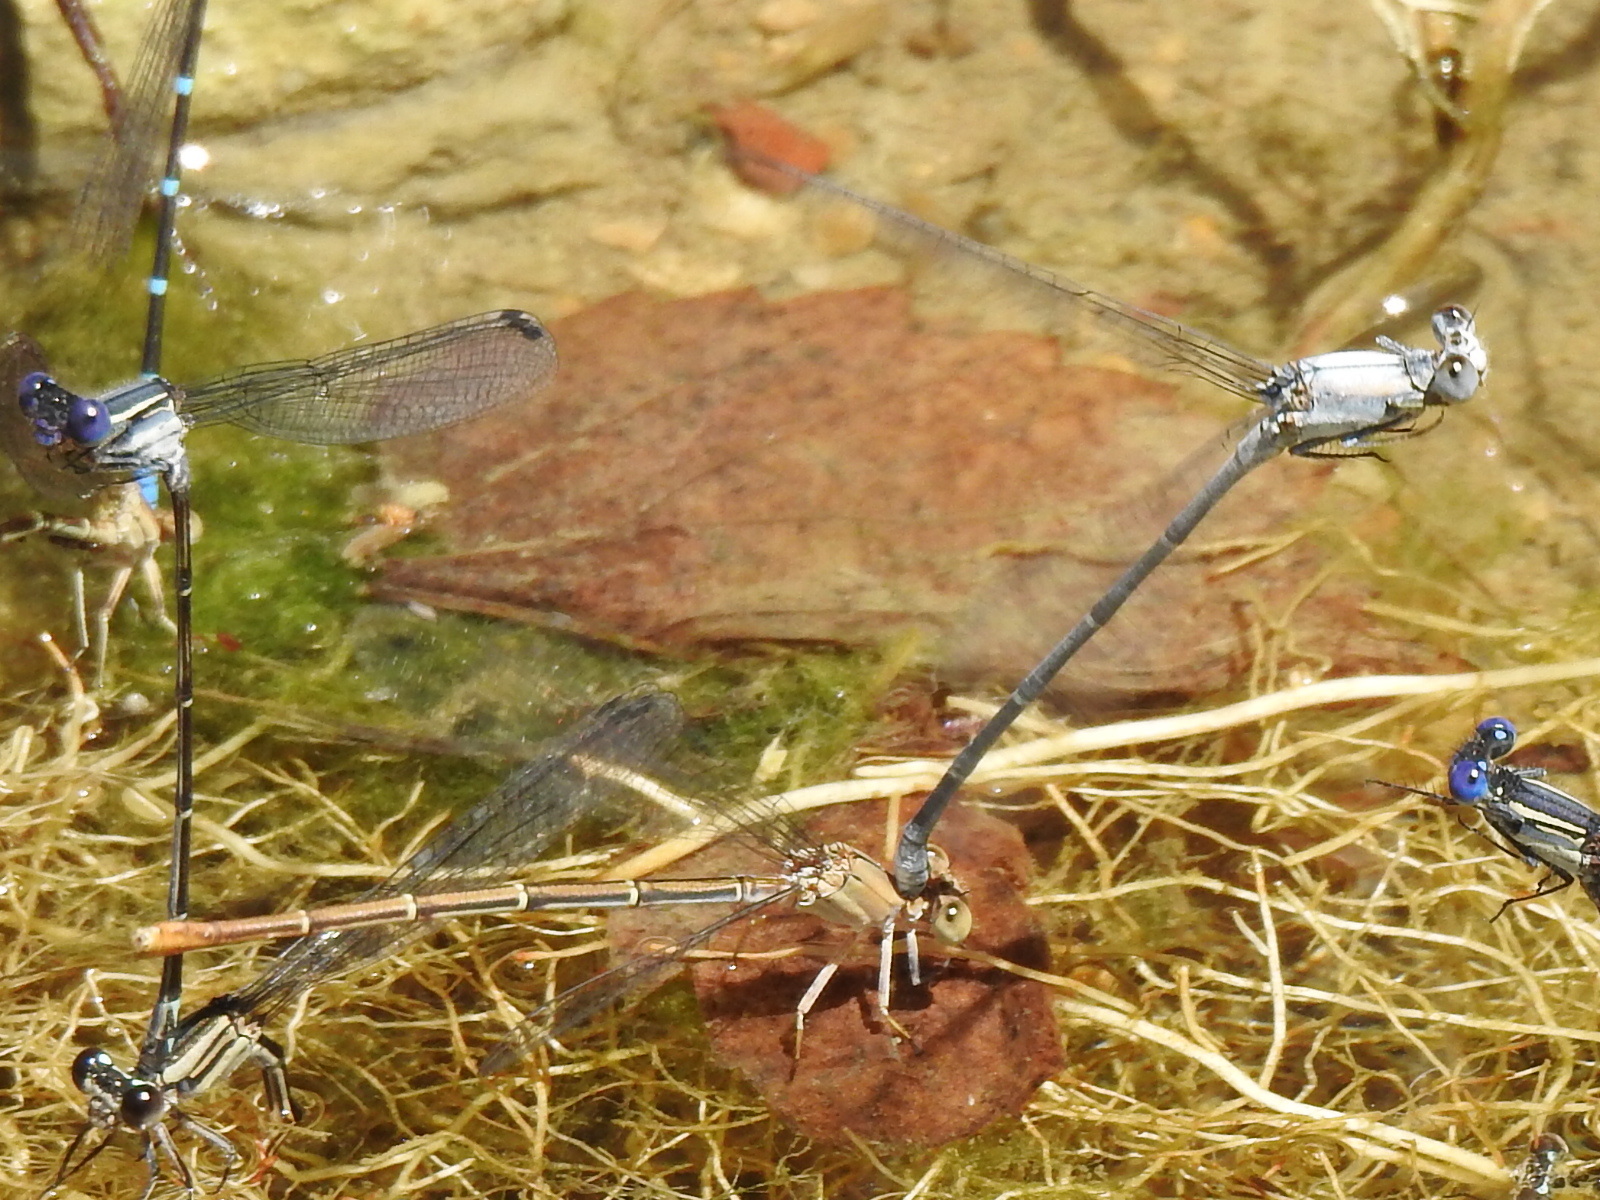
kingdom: Animalia
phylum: Arthropoda
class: Insecta
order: Odonata
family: Coenagrionidae
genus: Argia
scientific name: Argia moesta
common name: Powdered dancer
